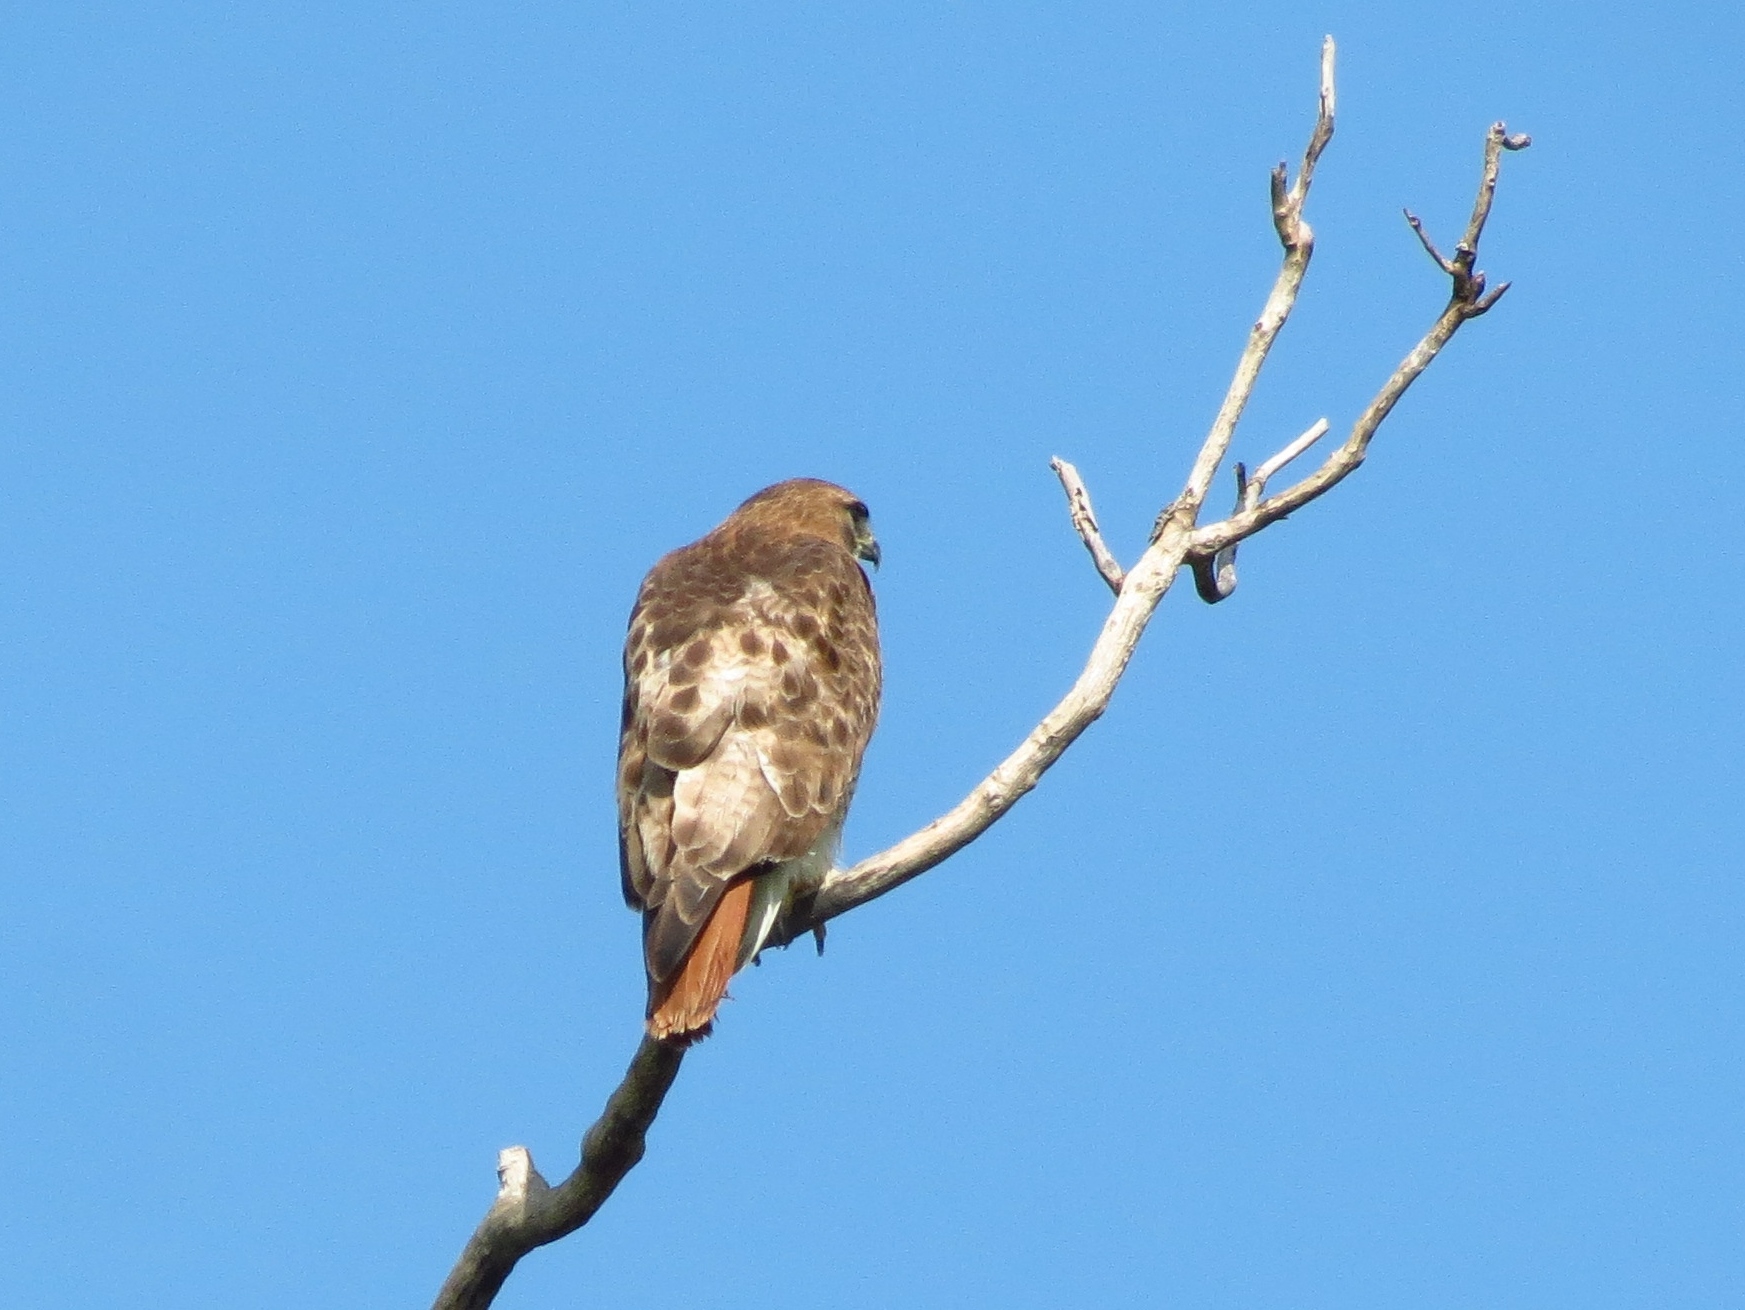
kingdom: Animalia
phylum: Chordata
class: Aves
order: Accipitriformes
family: Accipitridae
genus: Buteo
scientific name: Buteo jamaicensis
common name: Red-tailed hawk
